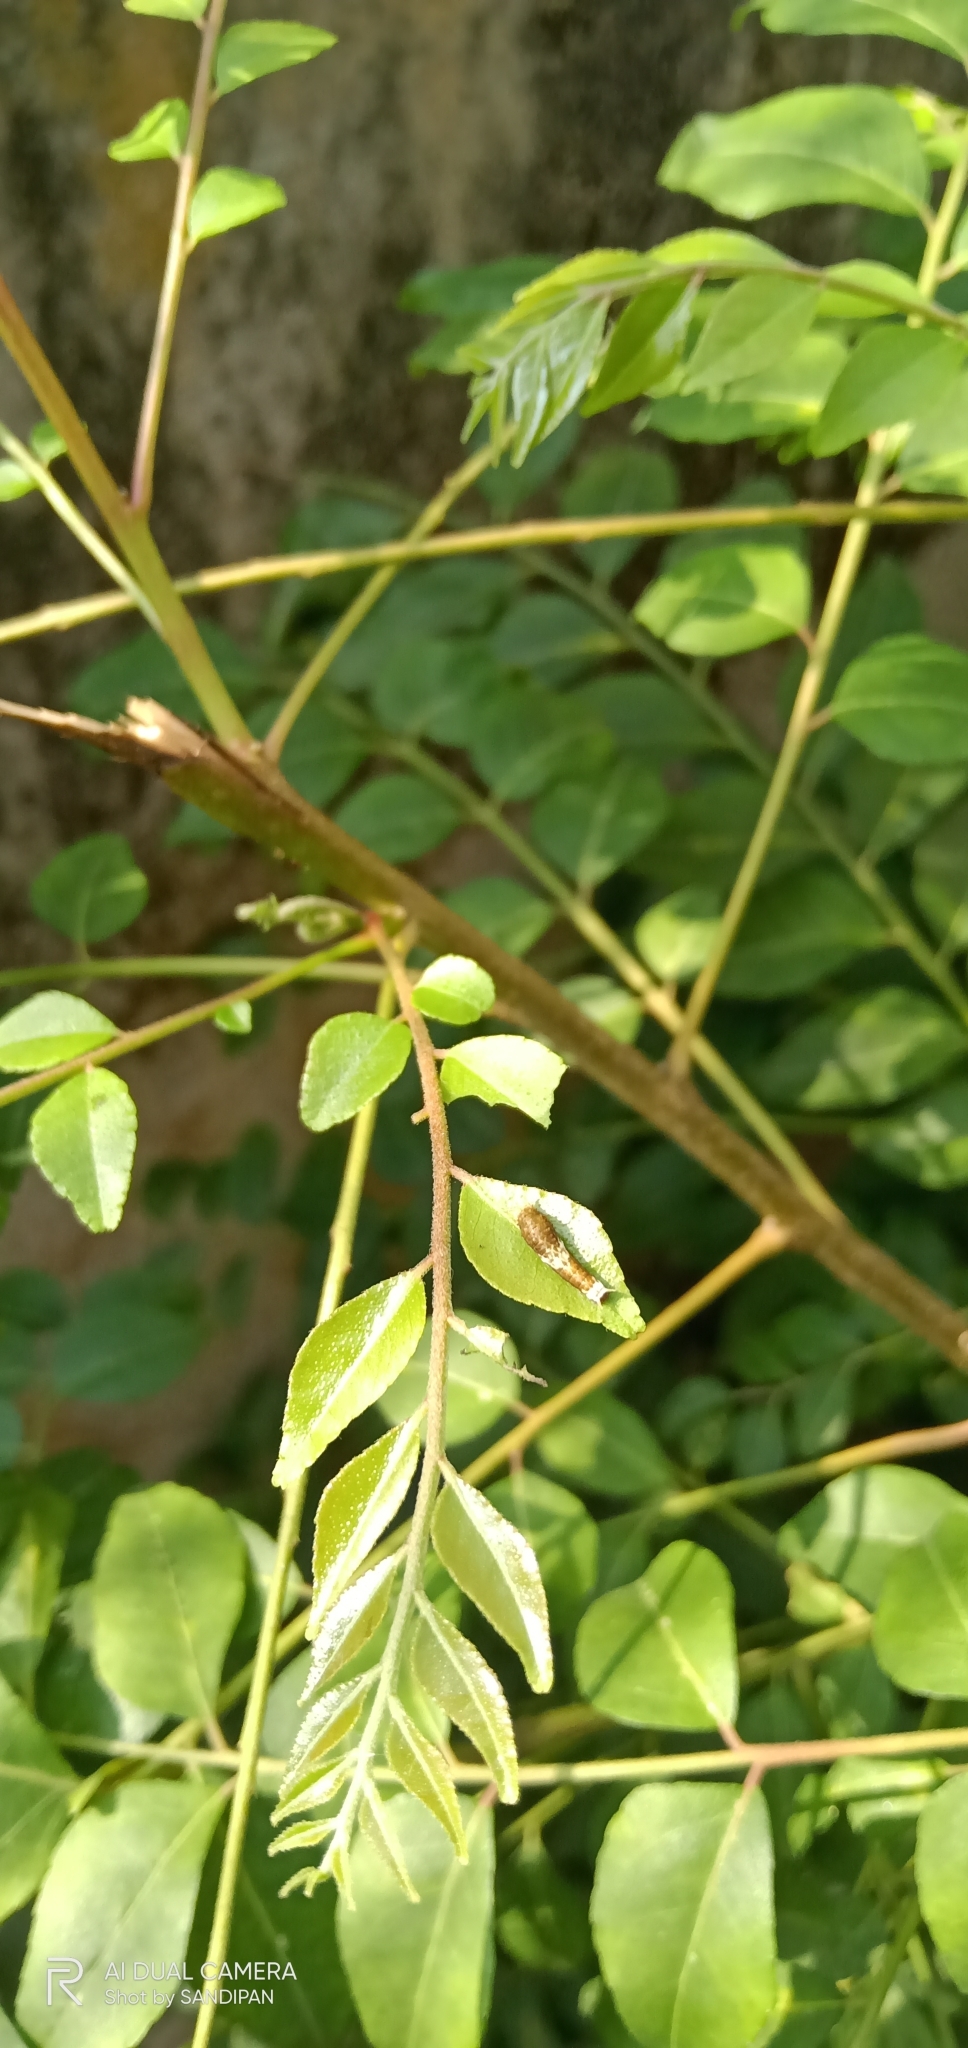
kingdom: Animalia
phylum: Arthropoda
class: Insecta
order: Lepidoptera
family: Papilionidae
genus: Papilio
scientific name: Papilio polytes
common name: Common mormon
